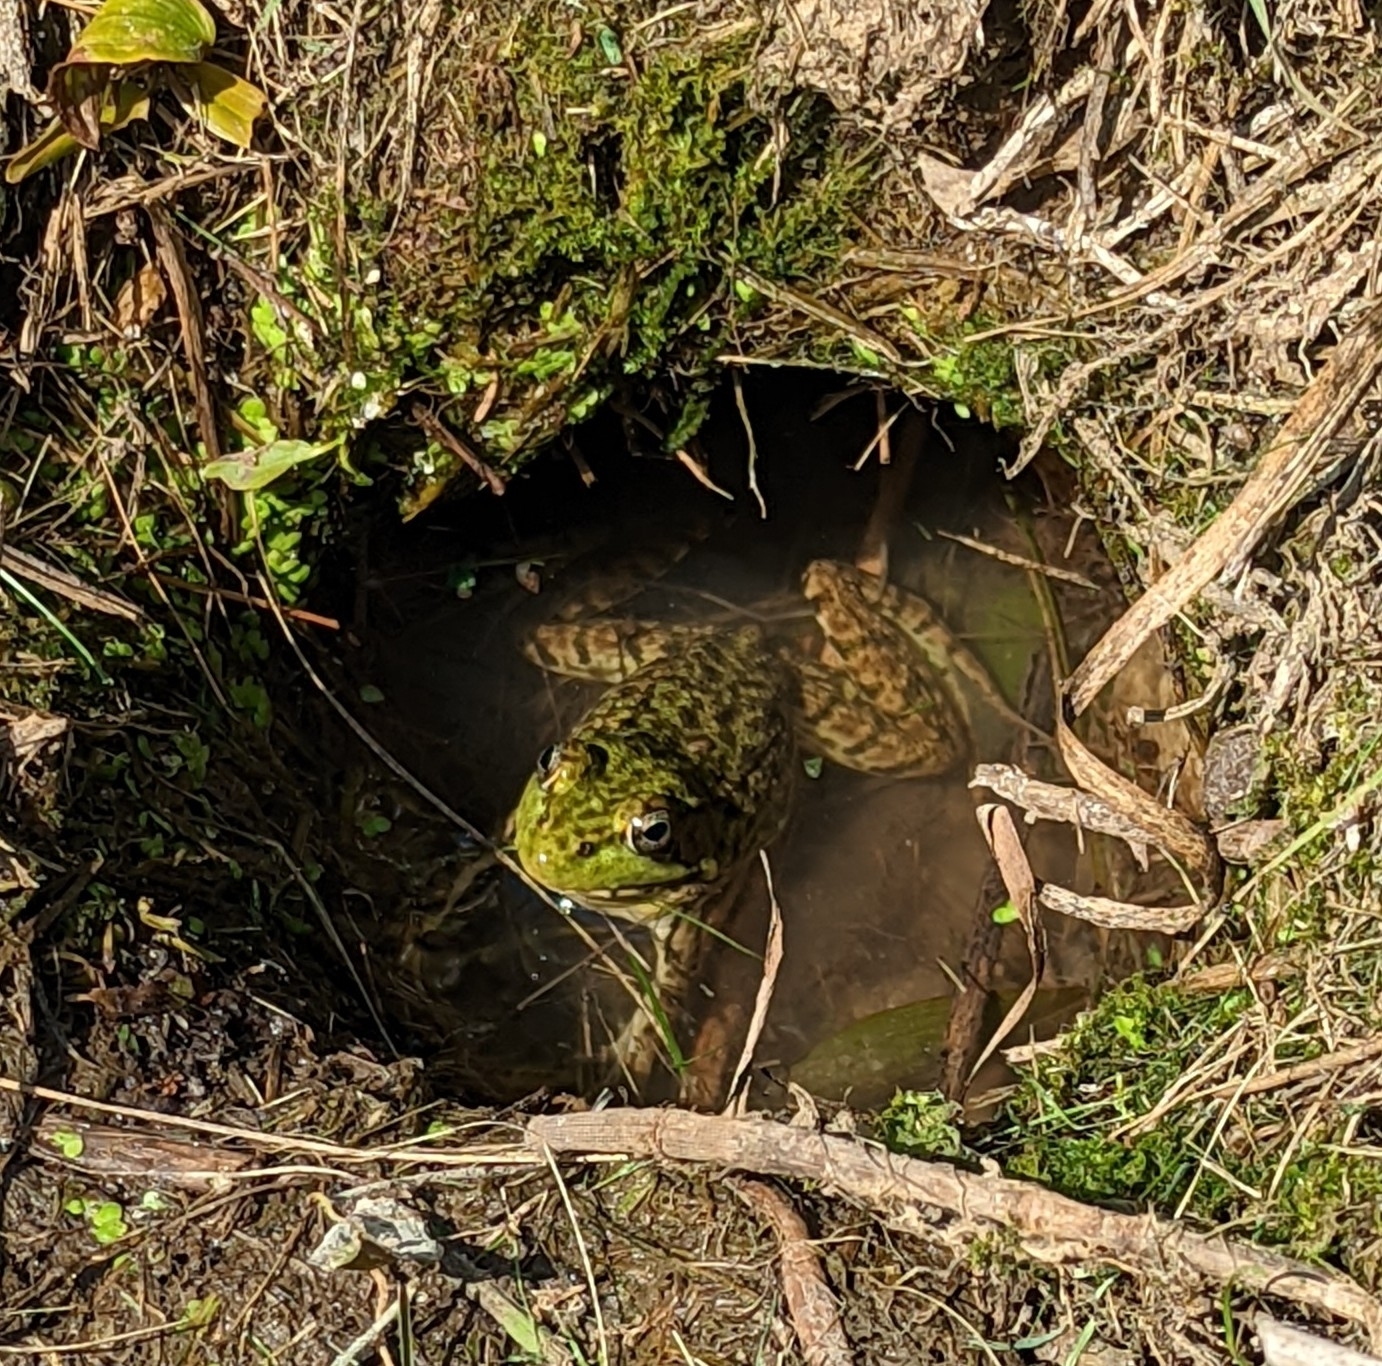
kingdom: Animalia
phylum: Chordata
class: Amphibia
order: Anura
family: Ranidae
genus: Lithobates
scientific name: Lithobates catesbeianus
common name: American bullfrog
